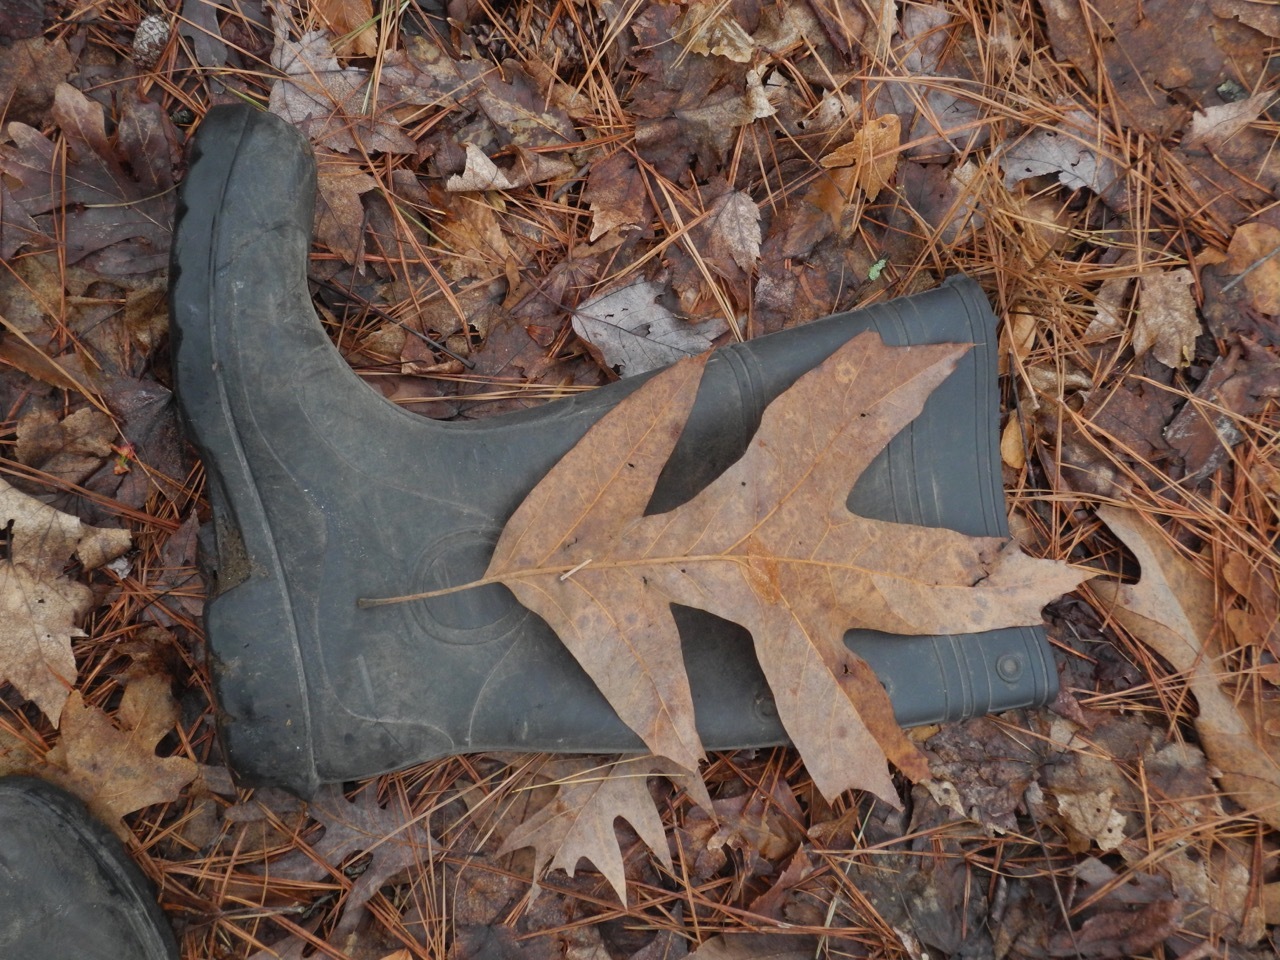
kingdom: Plantae
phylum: Tracheophyta
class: Magnoliopsida
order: Fagales
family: Fagaceae
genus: Quercus
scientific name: Quercus pagoda
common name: Cherrybark oak
